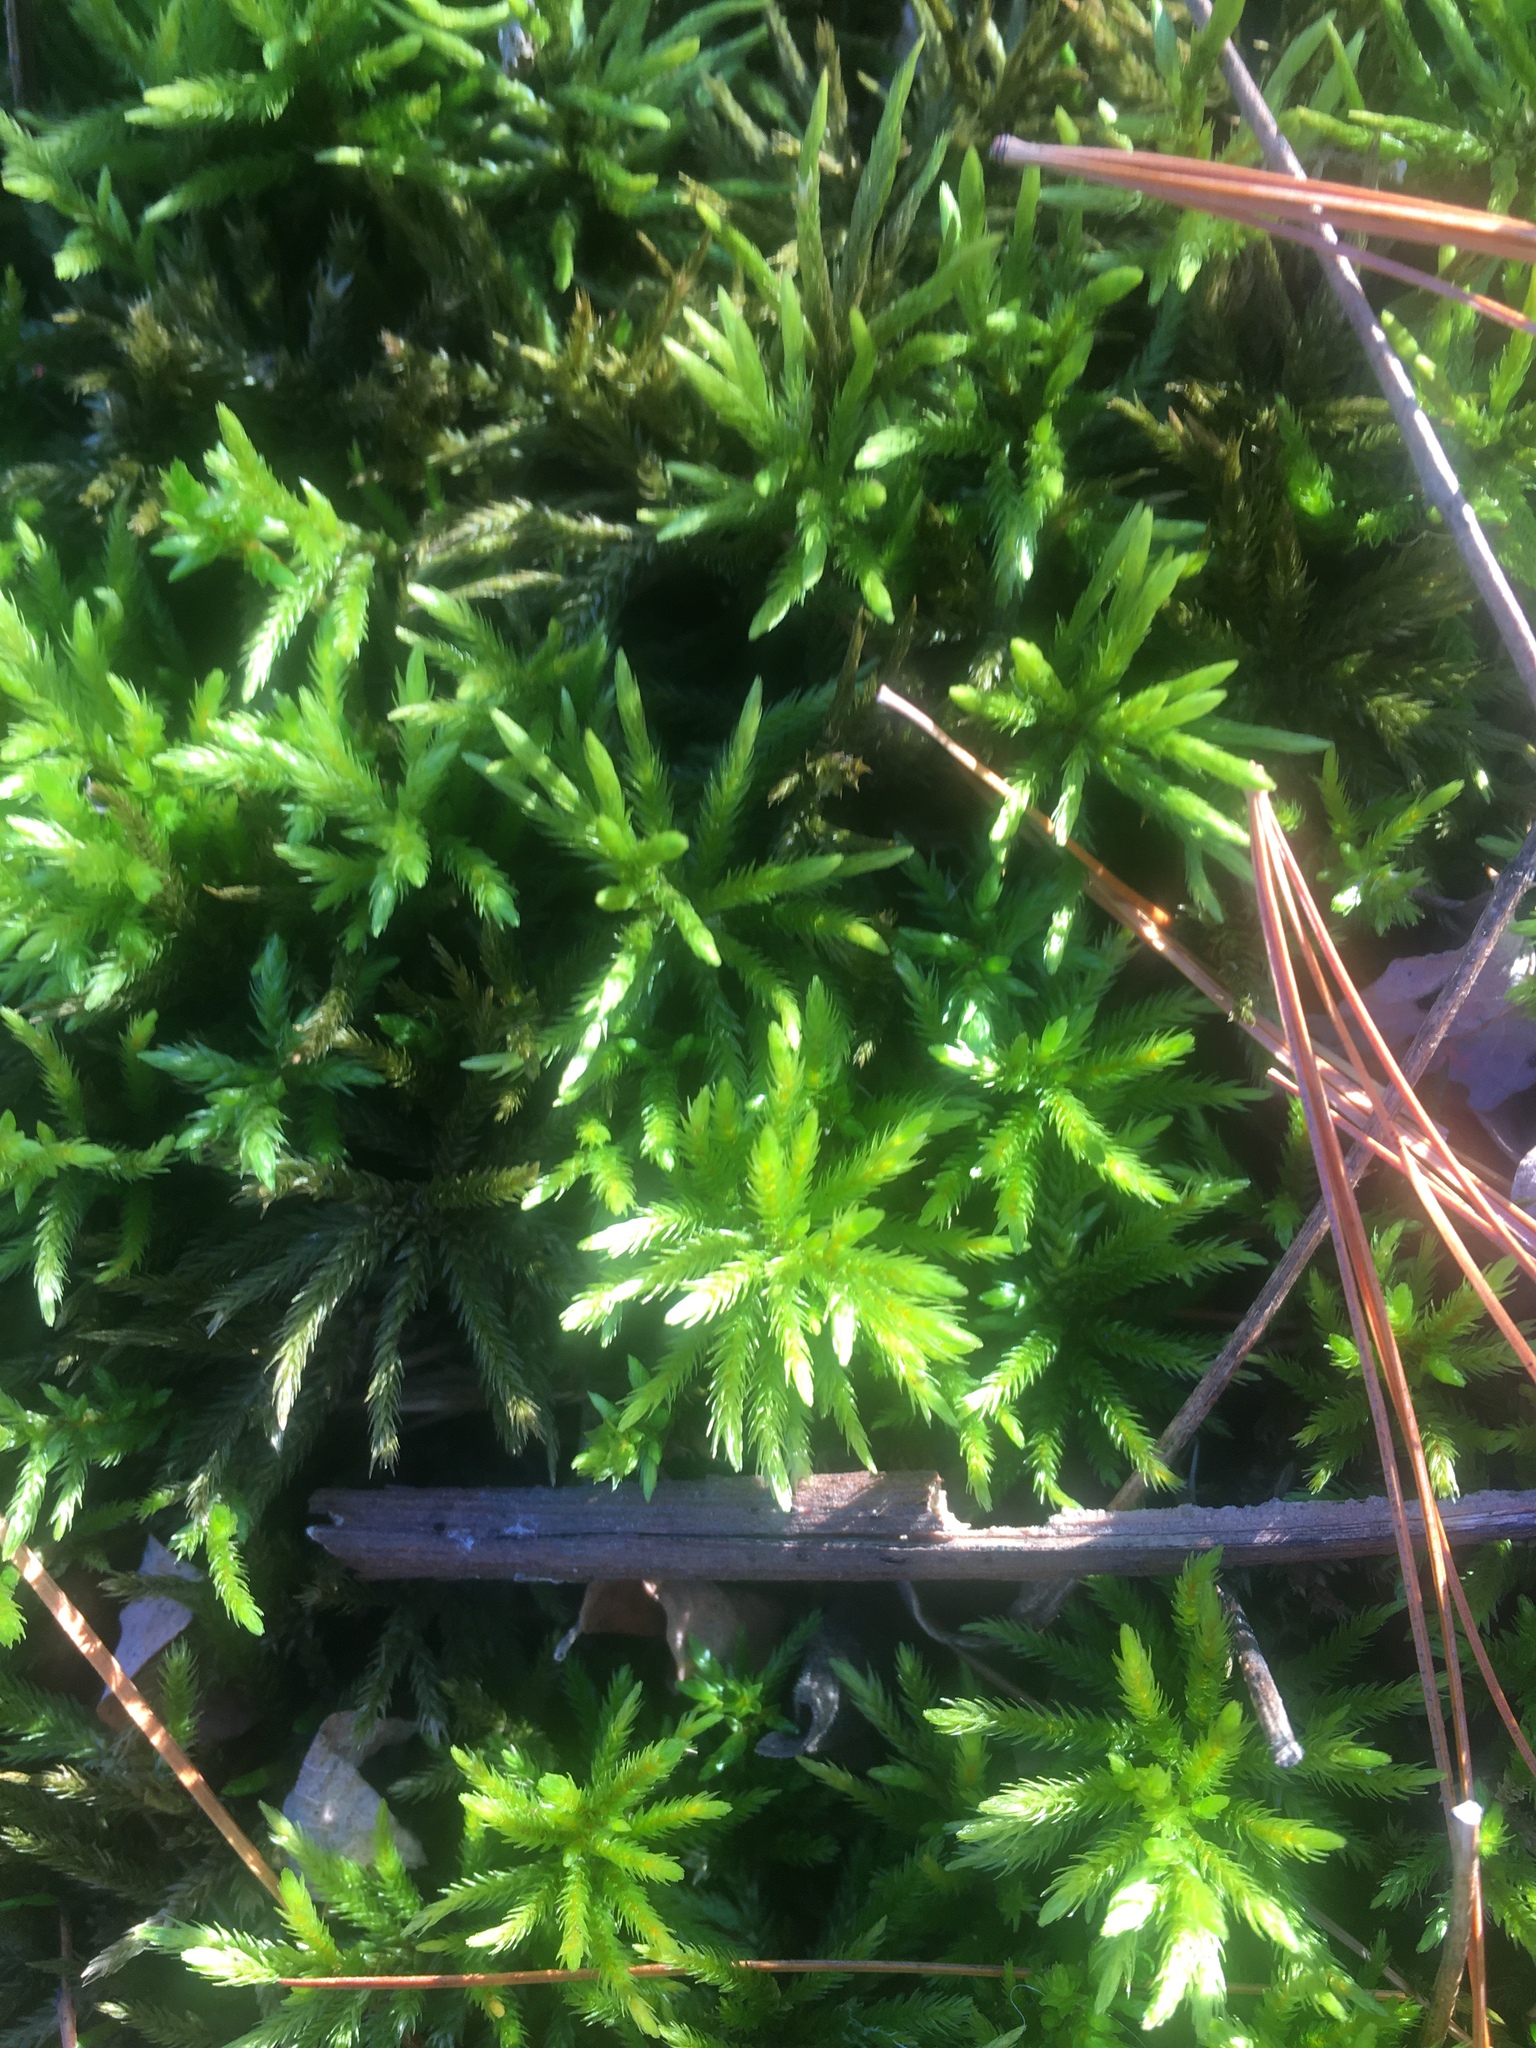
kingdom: Plantae
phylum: Bryophyta
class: Bryopsida
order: Hypnales
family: Climaciaceae
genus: Climacium
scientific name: Climacium americanum
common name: American tree moss
